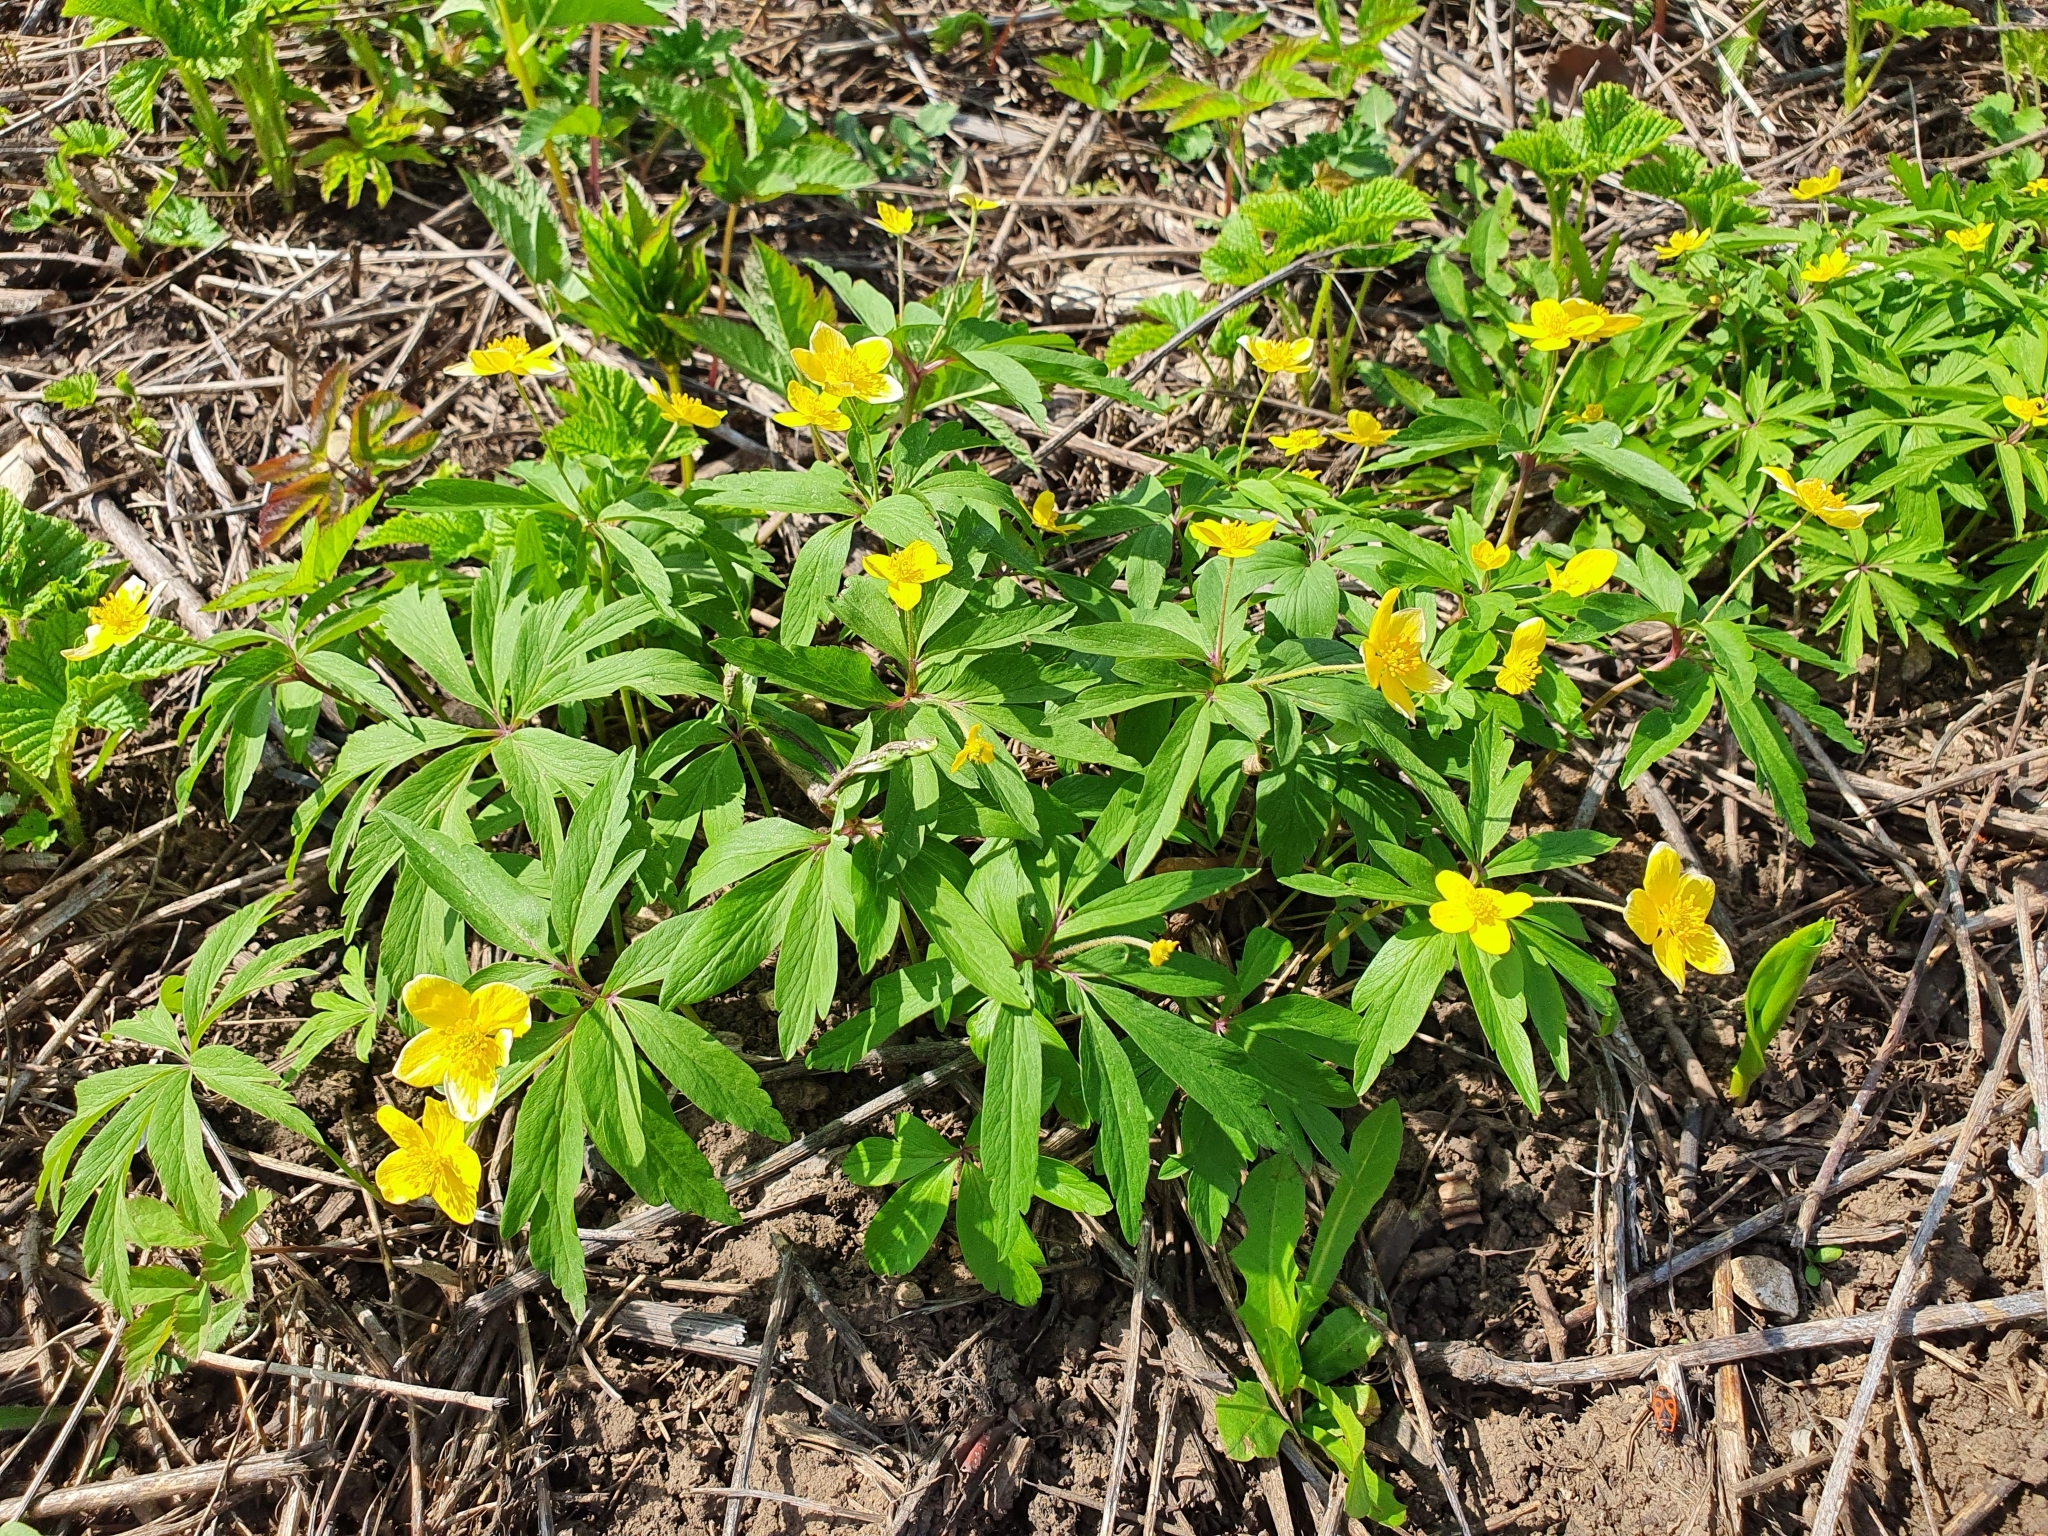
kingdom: Plantae
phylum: Tracheophyta
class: Magnoliopsida
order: Ranunculales
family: Ranunculaceae
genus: Anemone
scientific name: Anemone ranunculoides
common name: Yellow anemone
